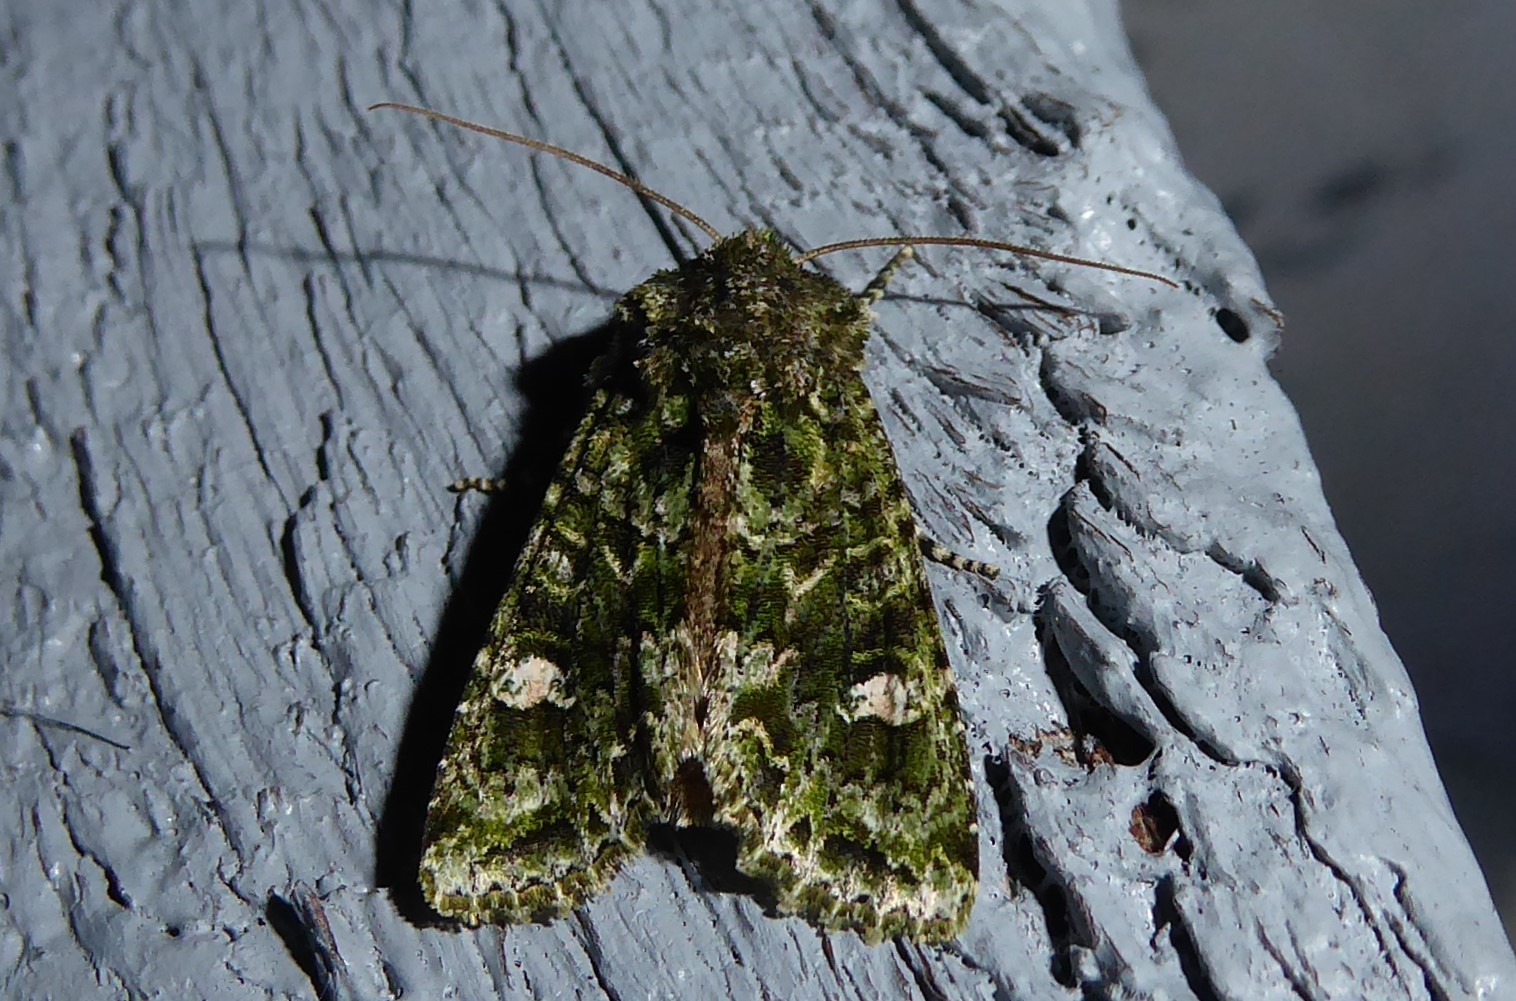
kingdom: Animalia
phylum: Arthropoda
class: Insecta
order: Lepidoptera
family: Noctuidae
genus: Ichneutica
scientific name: Ichneutica
